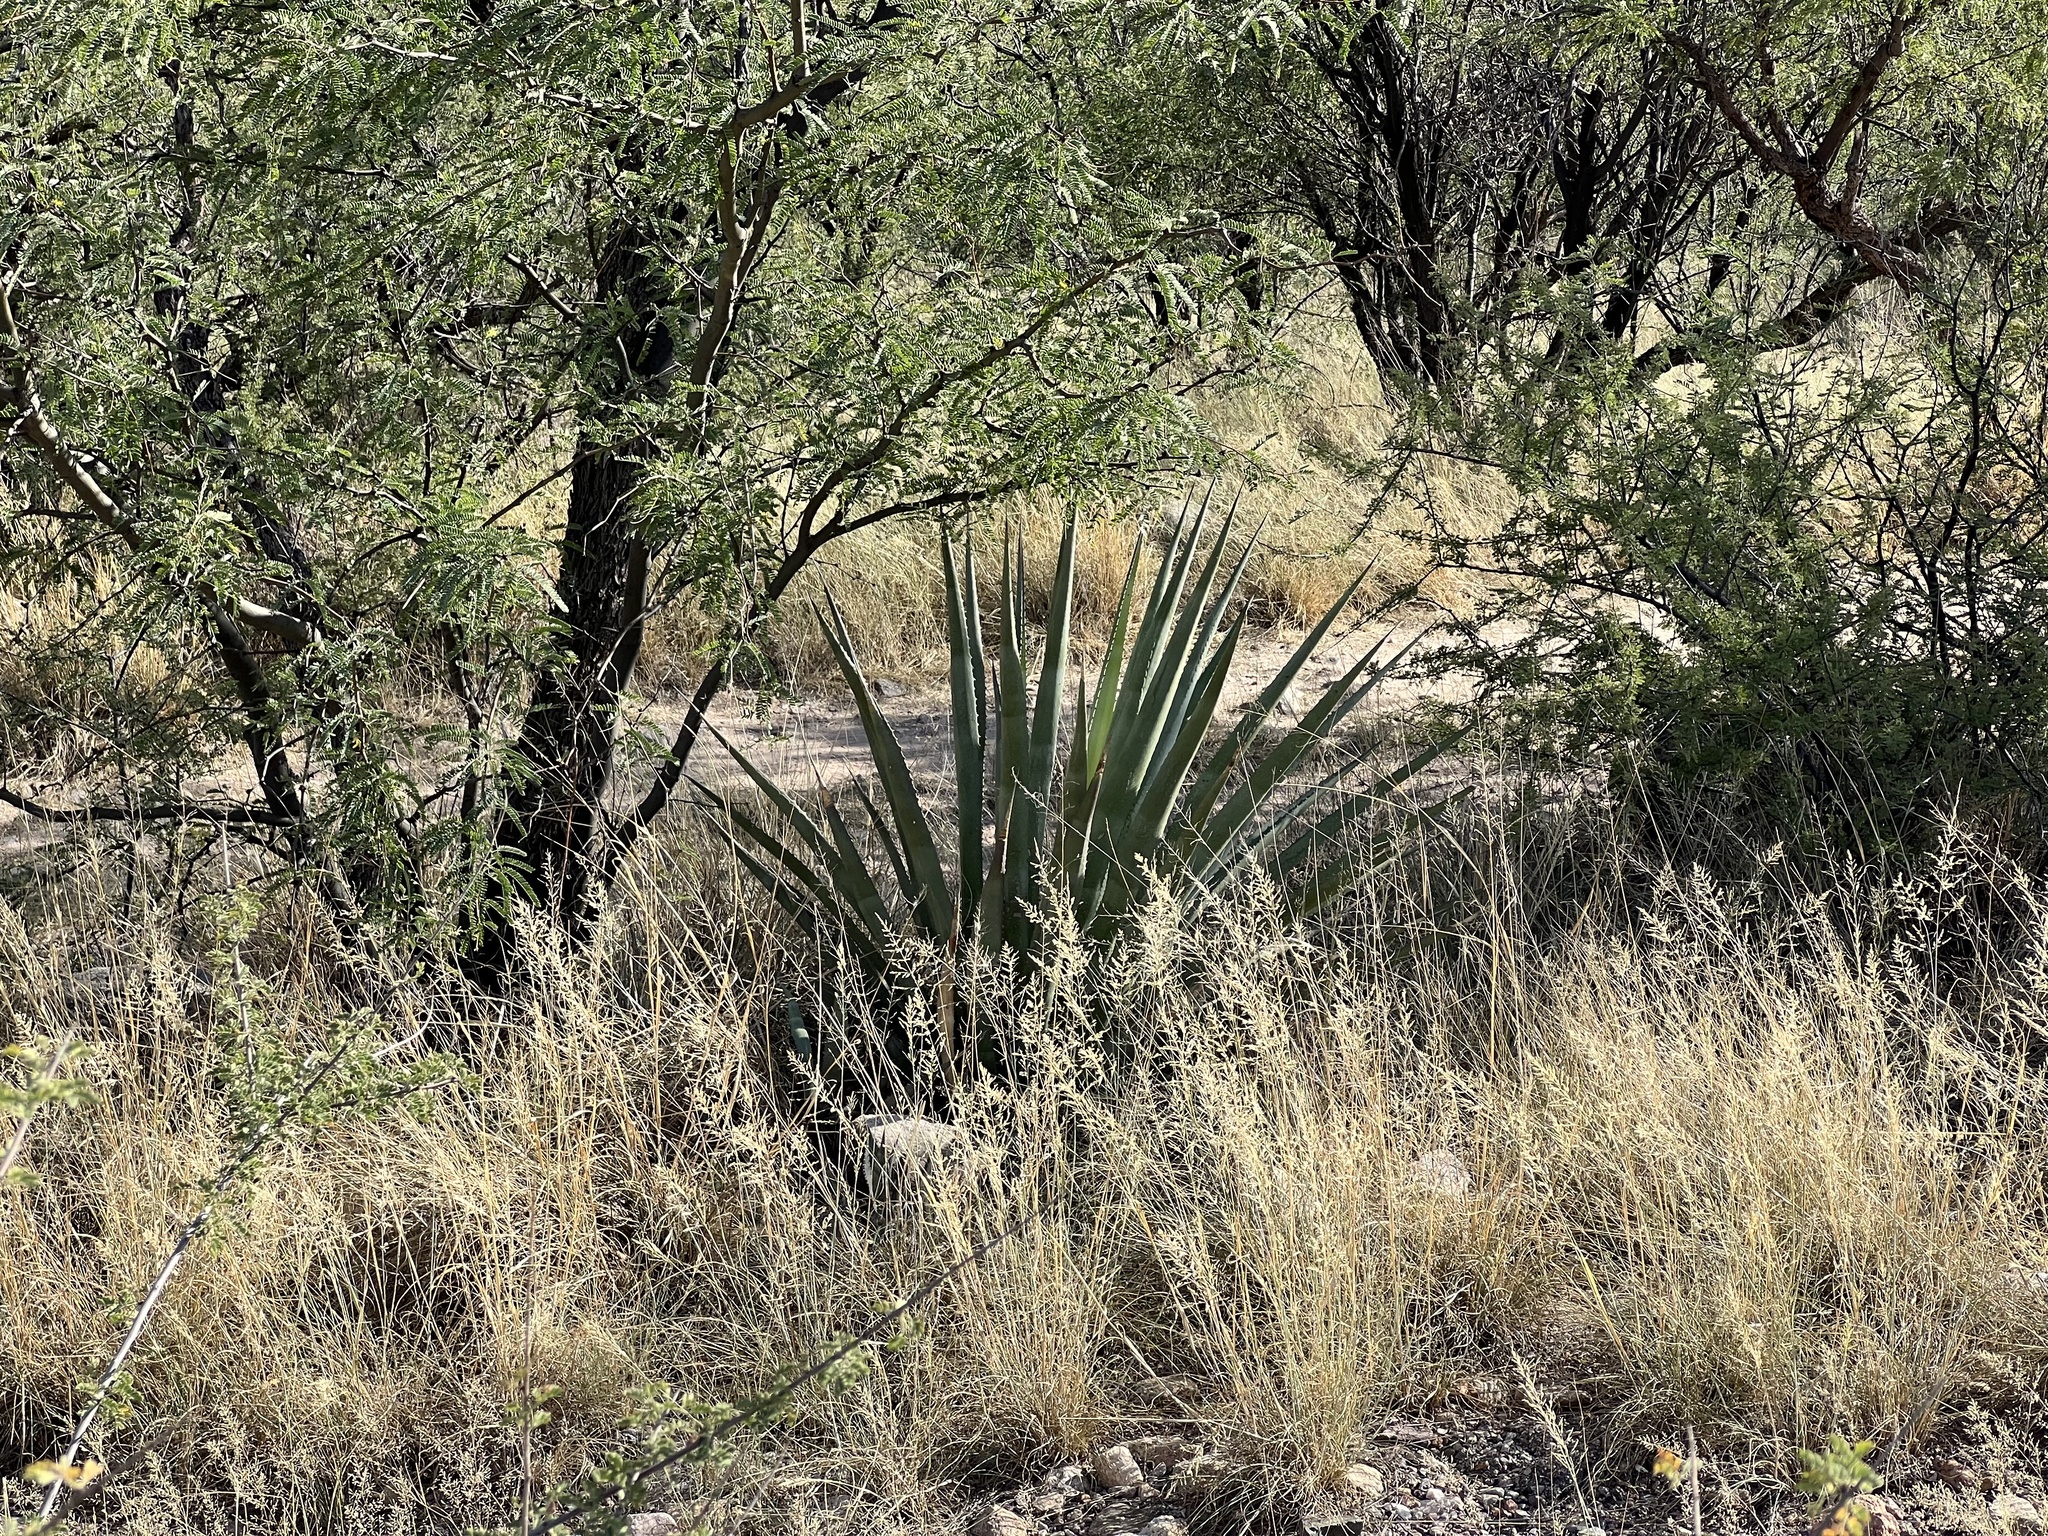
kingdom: Plantae
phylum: Tracheophyta
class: Liliopsida
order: Asparagales
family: Asparagaceae
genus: Agave
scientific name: Agave palmeri
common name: Palmer agave
